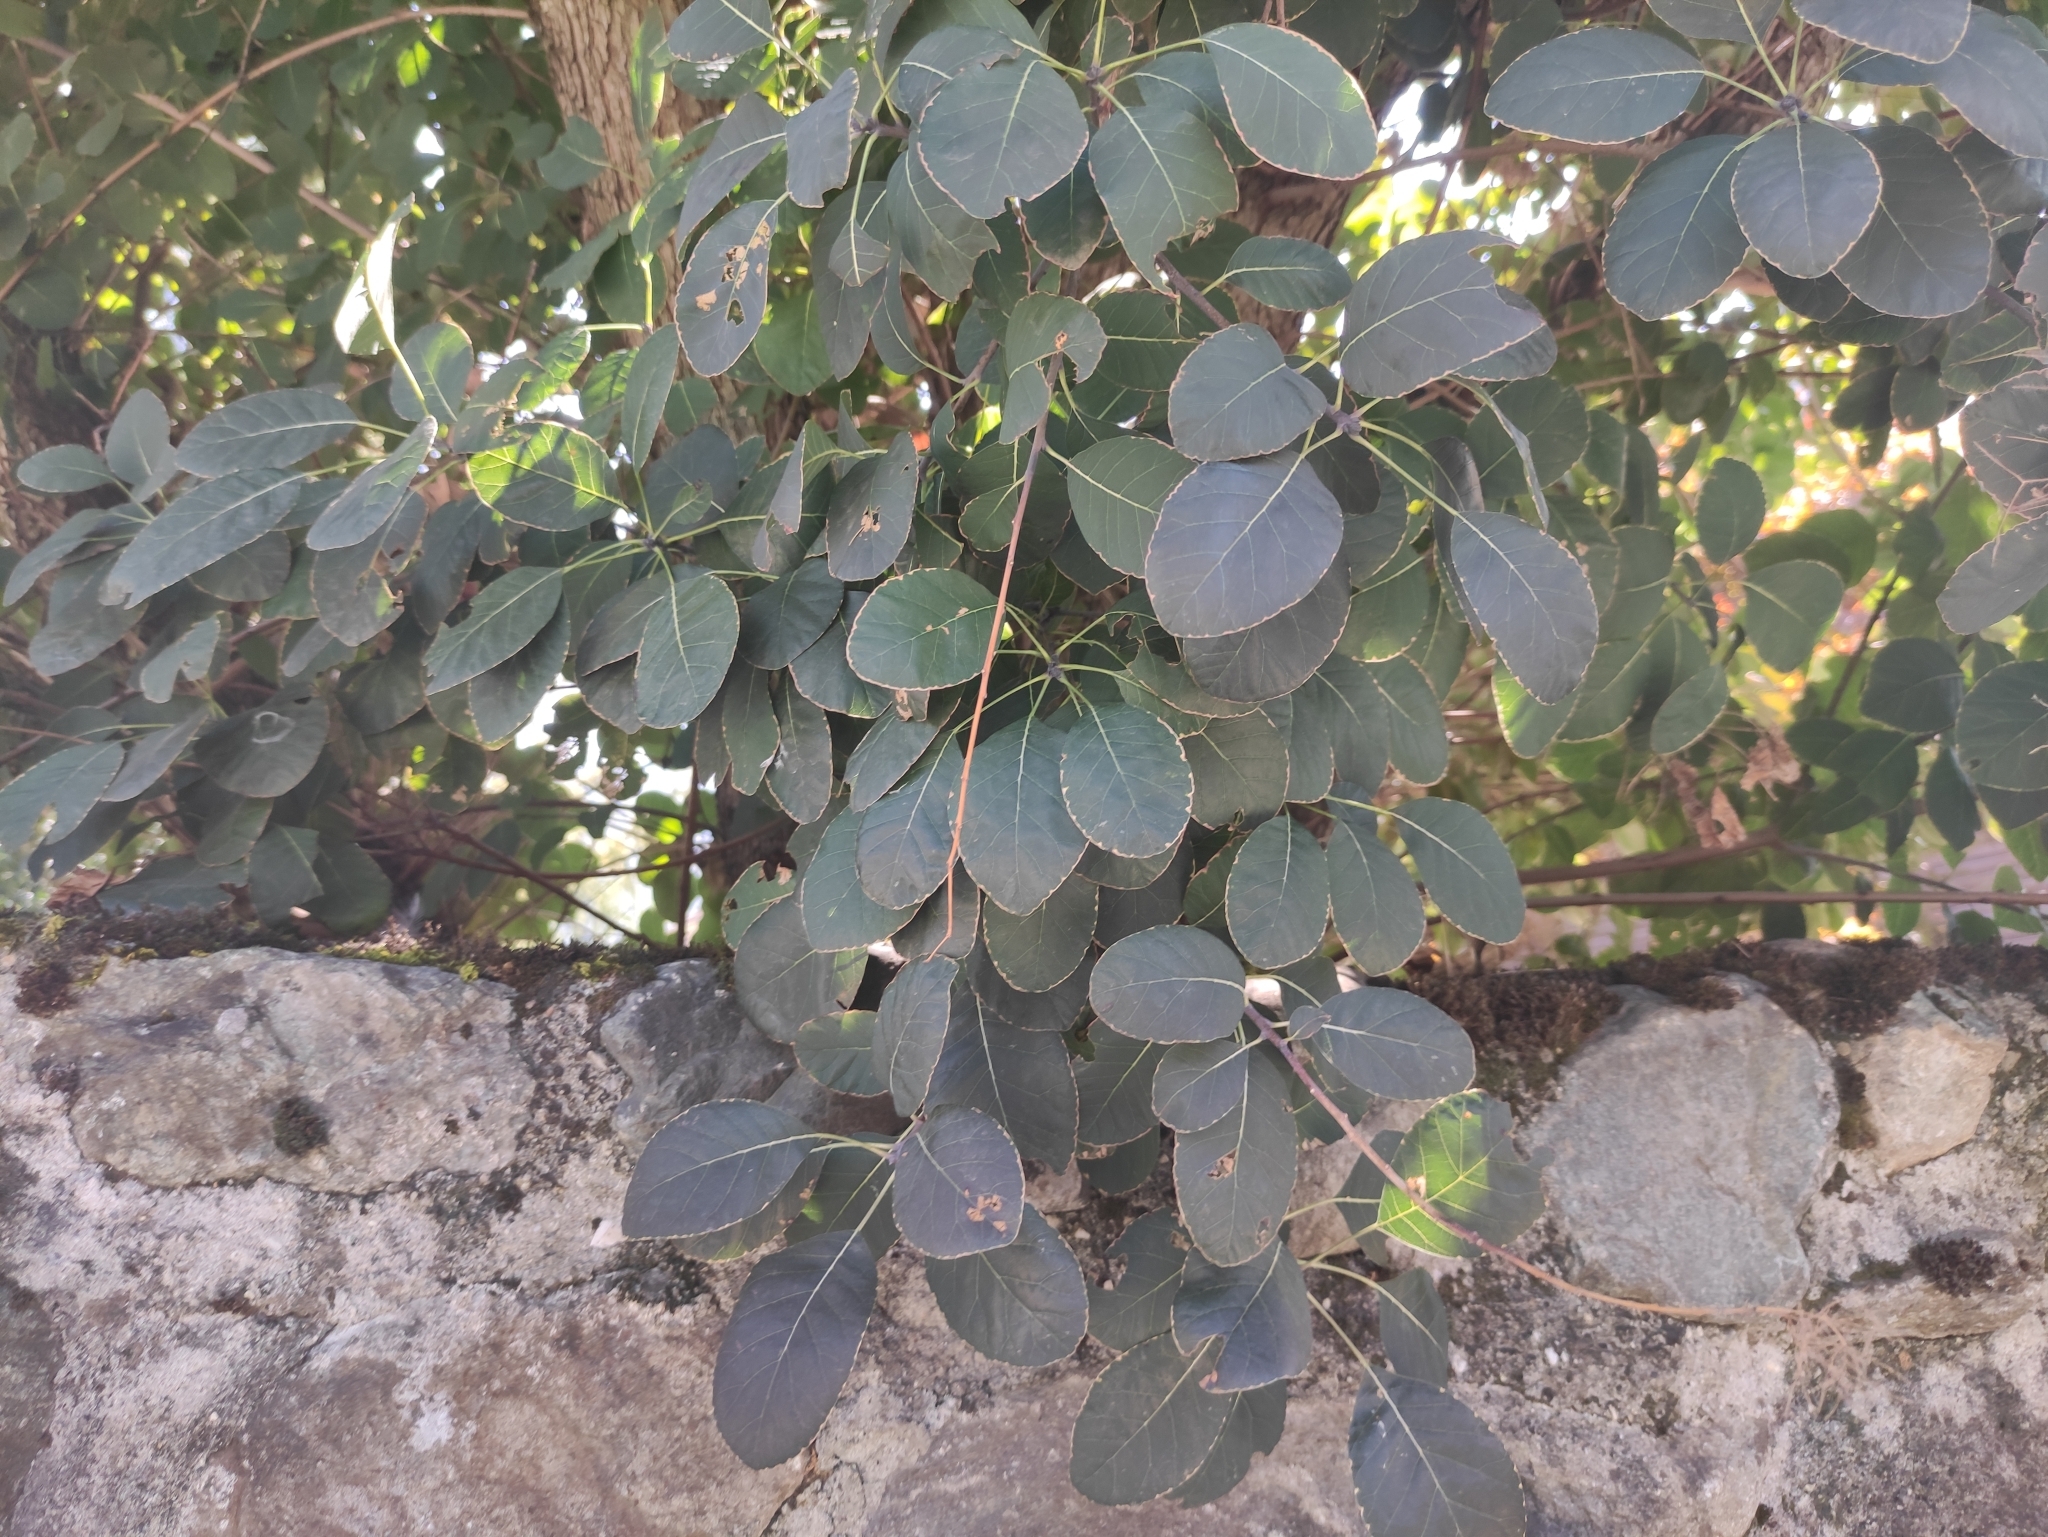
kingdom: Plantae
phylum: Tracheophyta
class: Magnoliopsida
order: Sapindales
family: Anacardiaceae
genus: Cotinus
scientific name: Cotinus coggygria
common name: Smoke-tree
